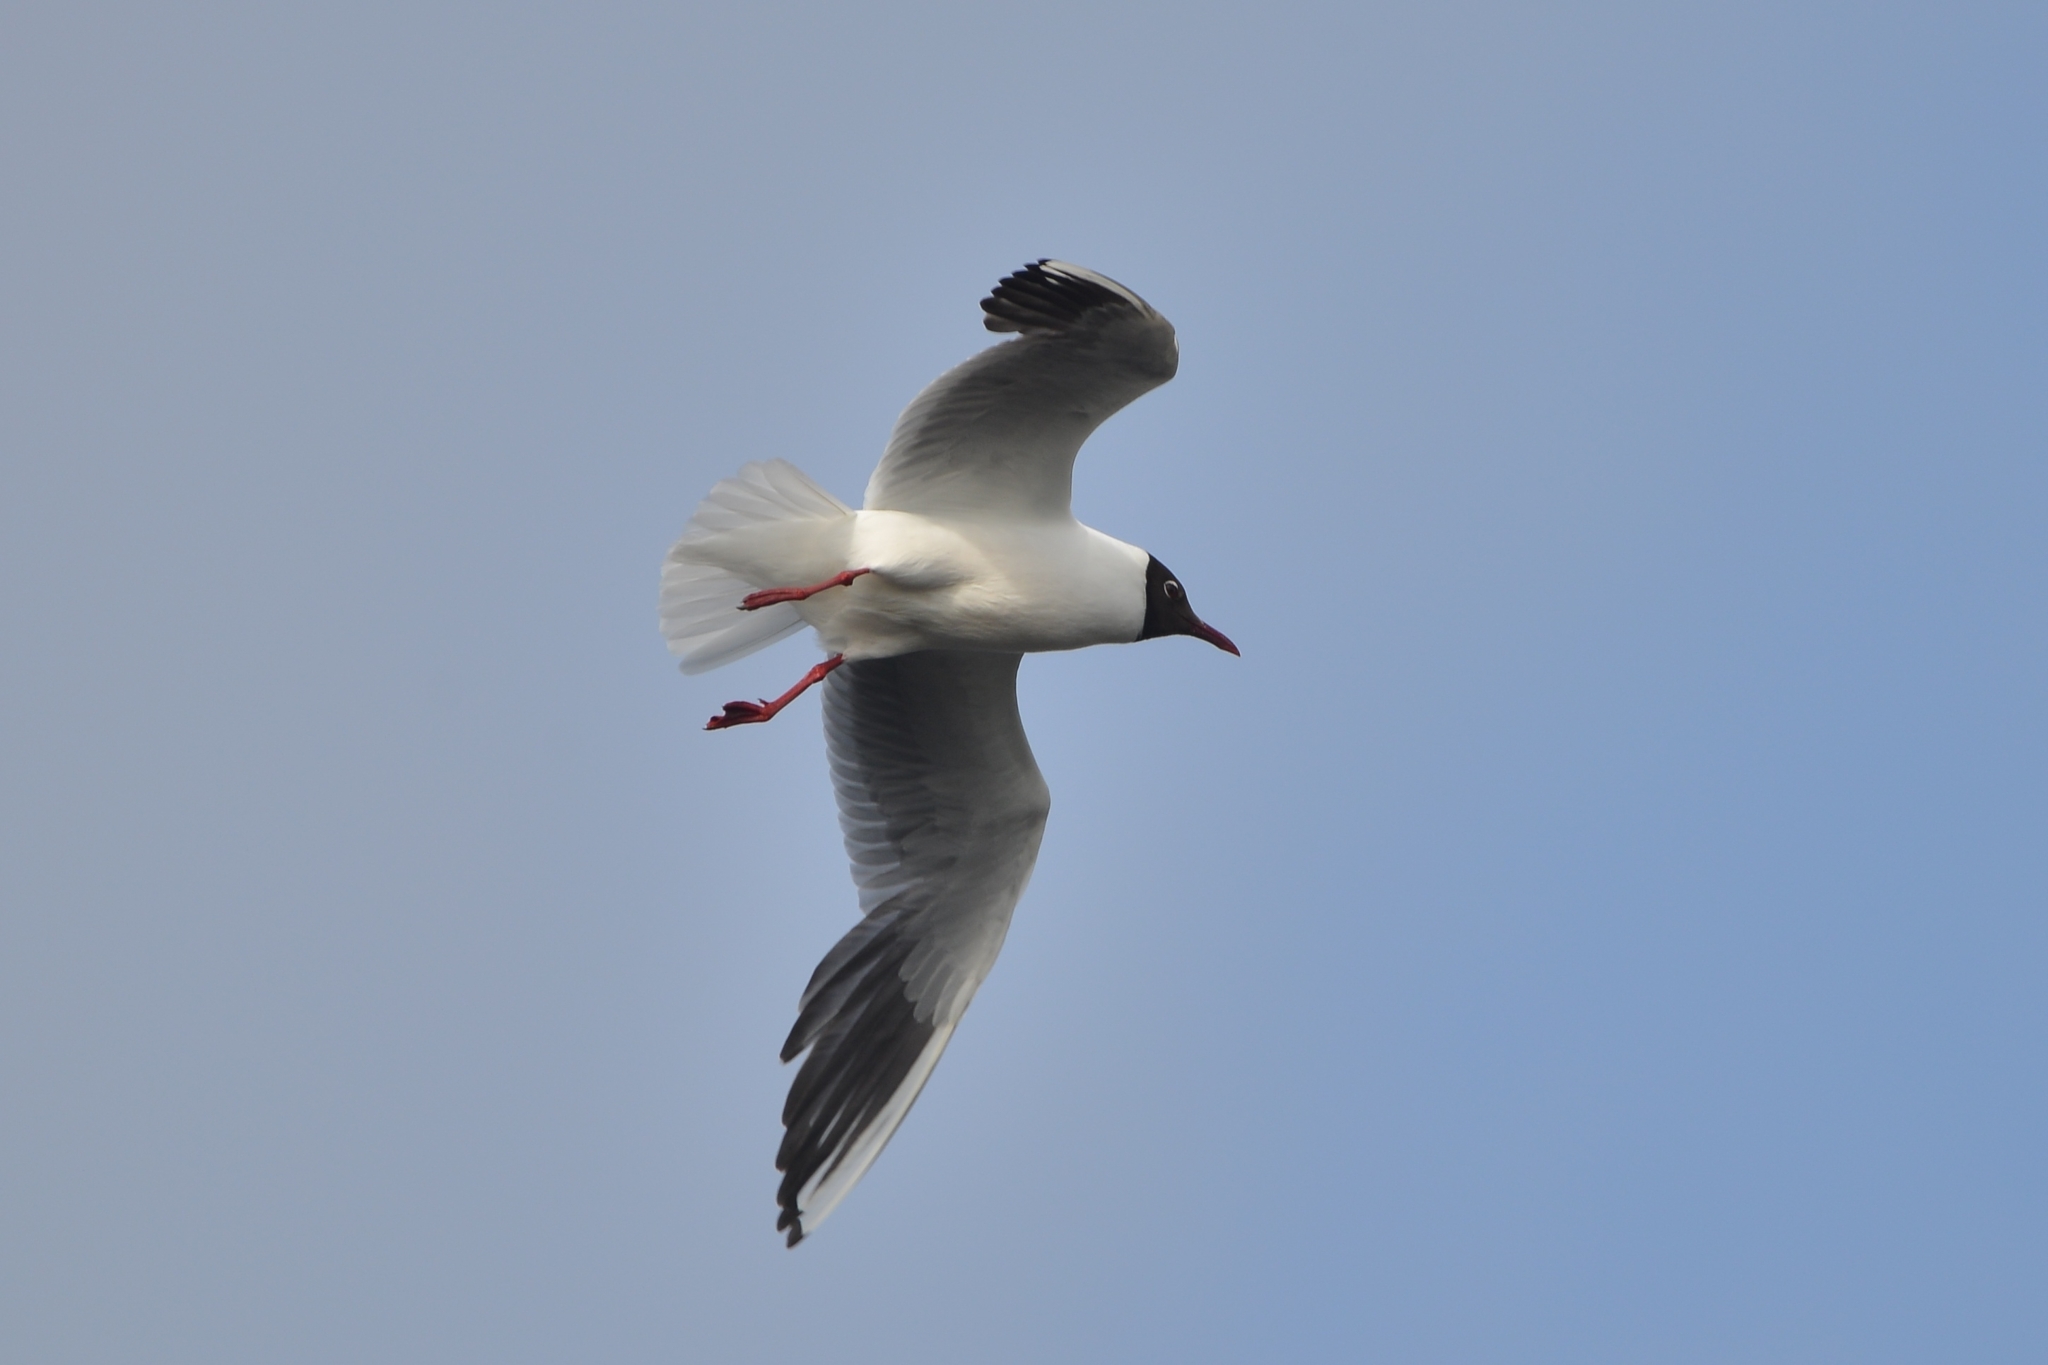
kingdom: Animalia
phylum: Chordata
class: Aves
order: Charadriiformes
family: Laridae
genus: Chroicocephalus
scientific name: Chroicocephalus ridibundus
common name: Black-headed gull
